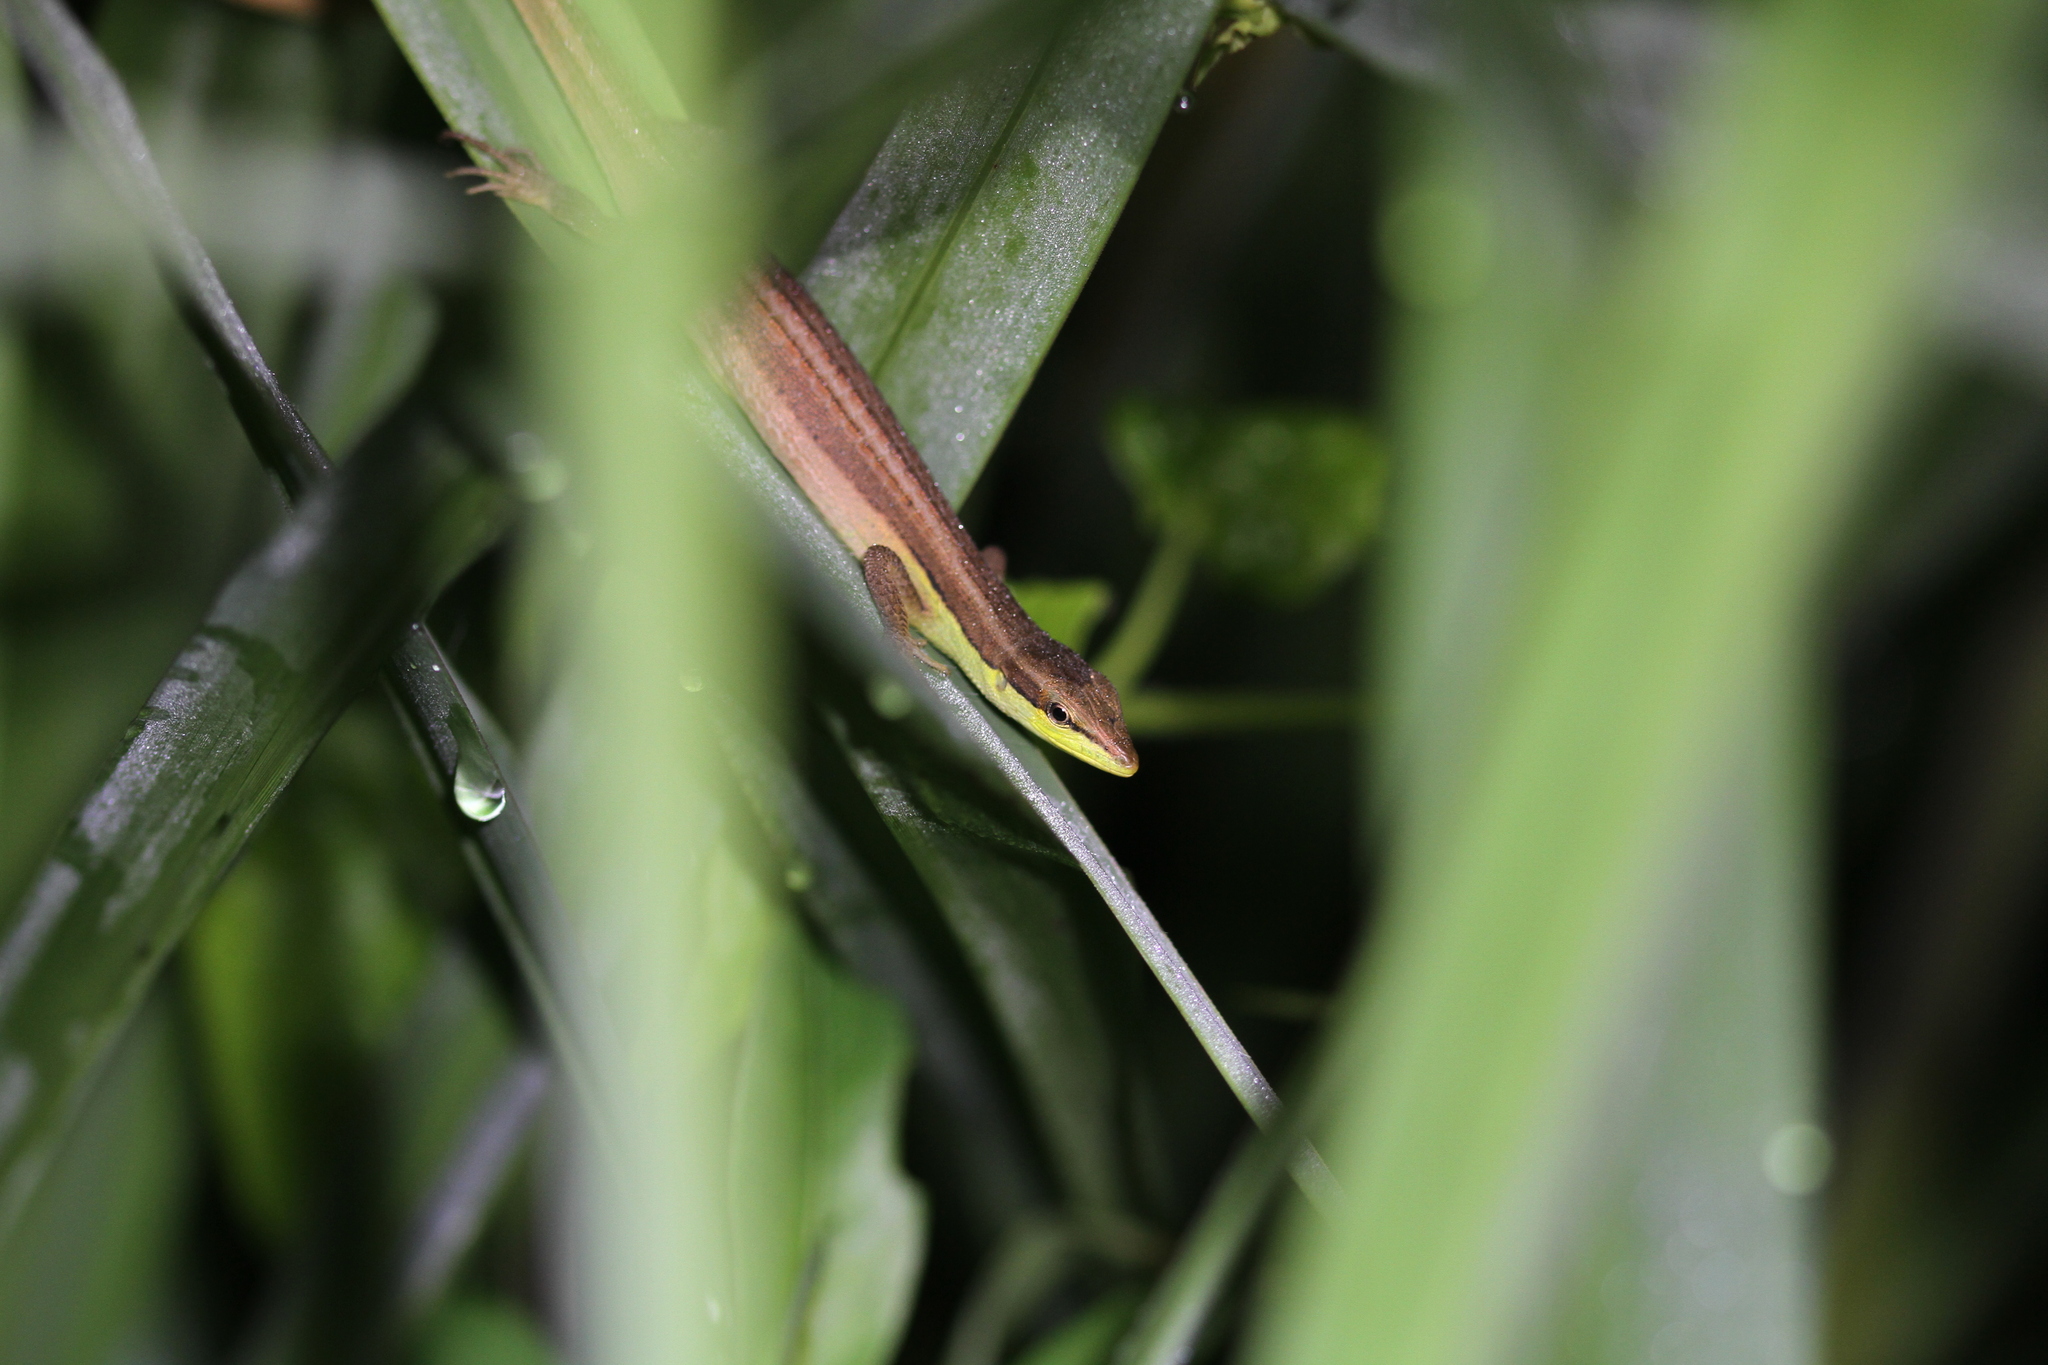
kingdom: Animalia
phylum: Chordata
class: Squamata
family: Lacertidae
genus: Takydromus
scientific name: Takydromus sexlineatus
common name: Asian grass lizard
